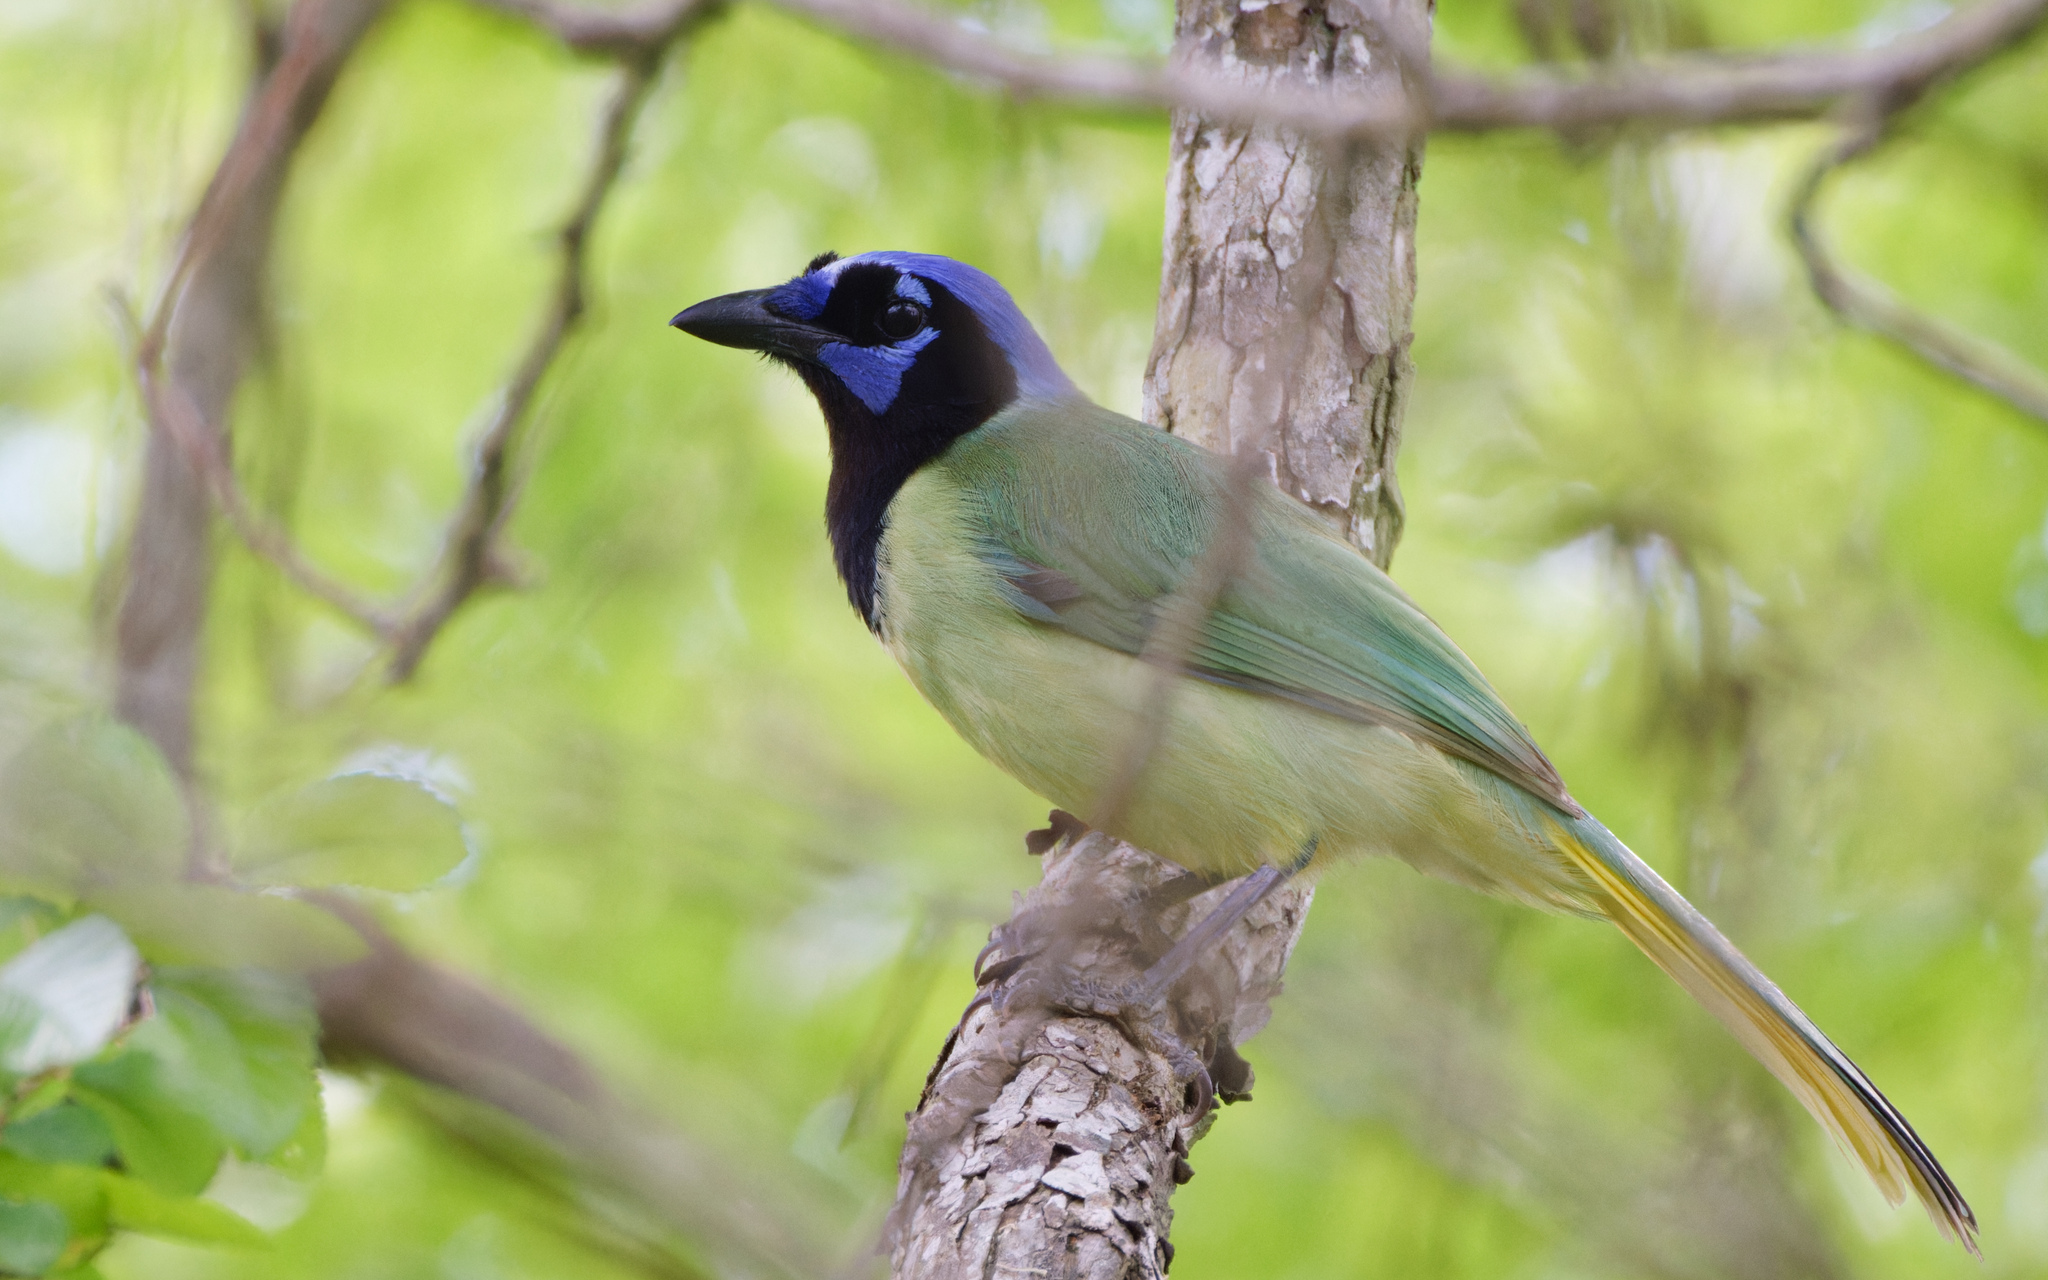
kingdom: Animalia
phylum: Chordata
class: Aves
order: Passeriformes
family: Corvidae
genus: Cyanocorax
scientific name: Cyanocorax yncas
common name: Green jay
